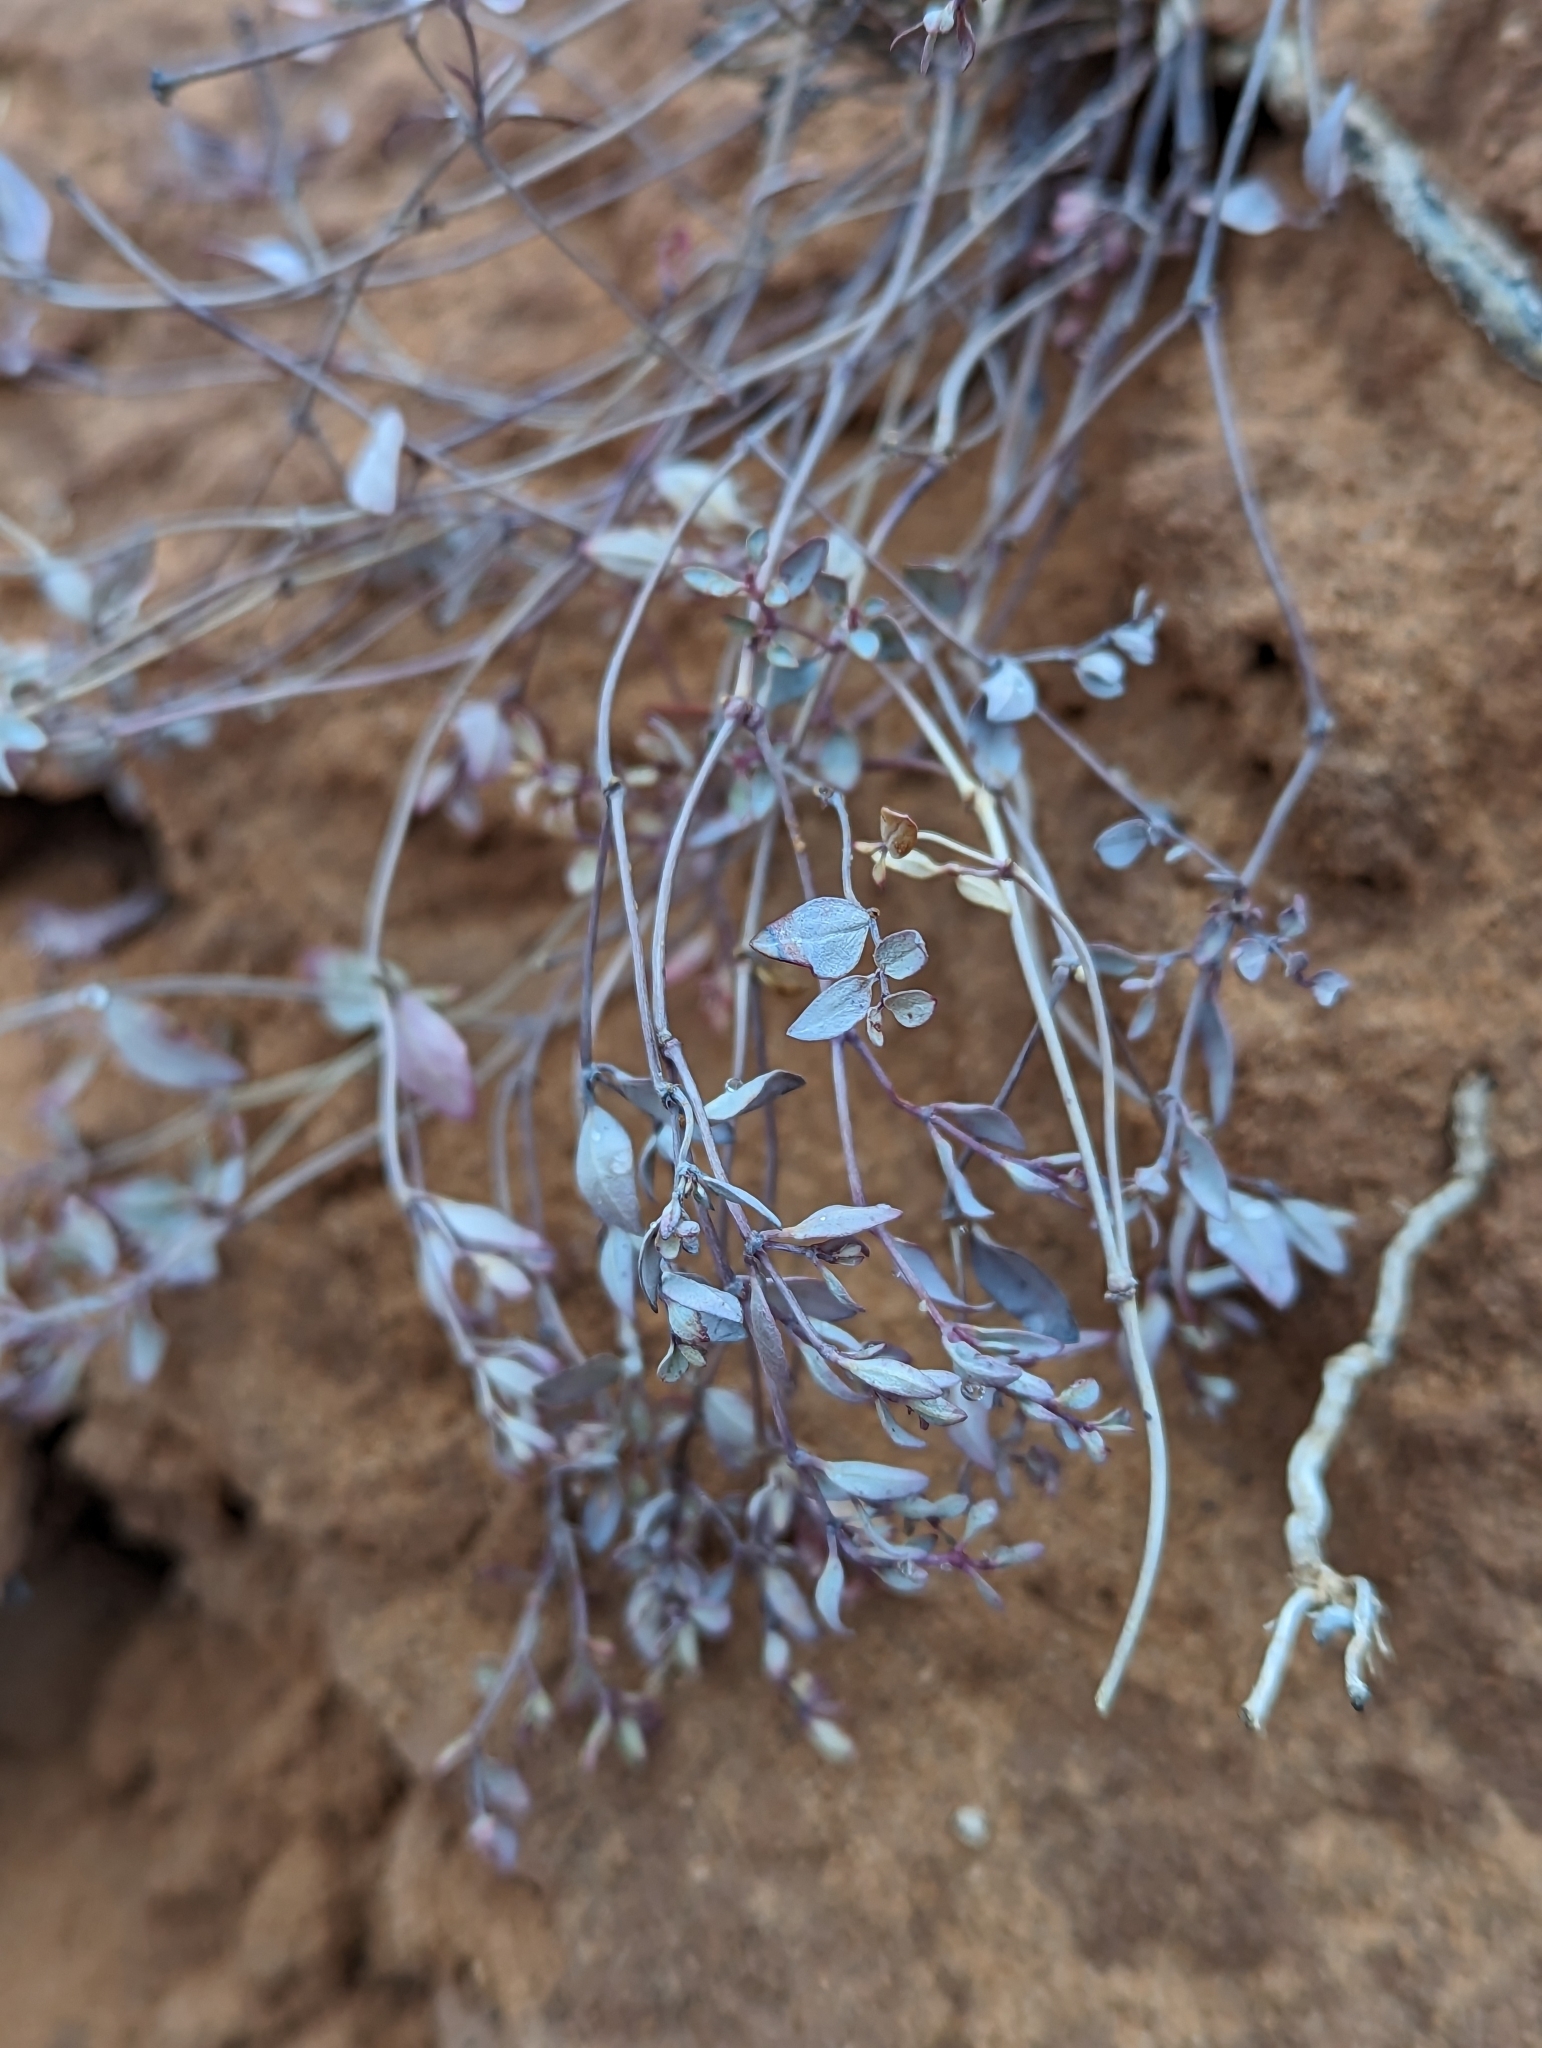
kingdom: Plantae
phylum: Tracheophyta
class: Magnoliopsida
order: Malpighiales
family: Euphorbiaceae
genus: Euphorbia
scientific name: Euphorbia fendleri
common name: Fendler's euphorbia
